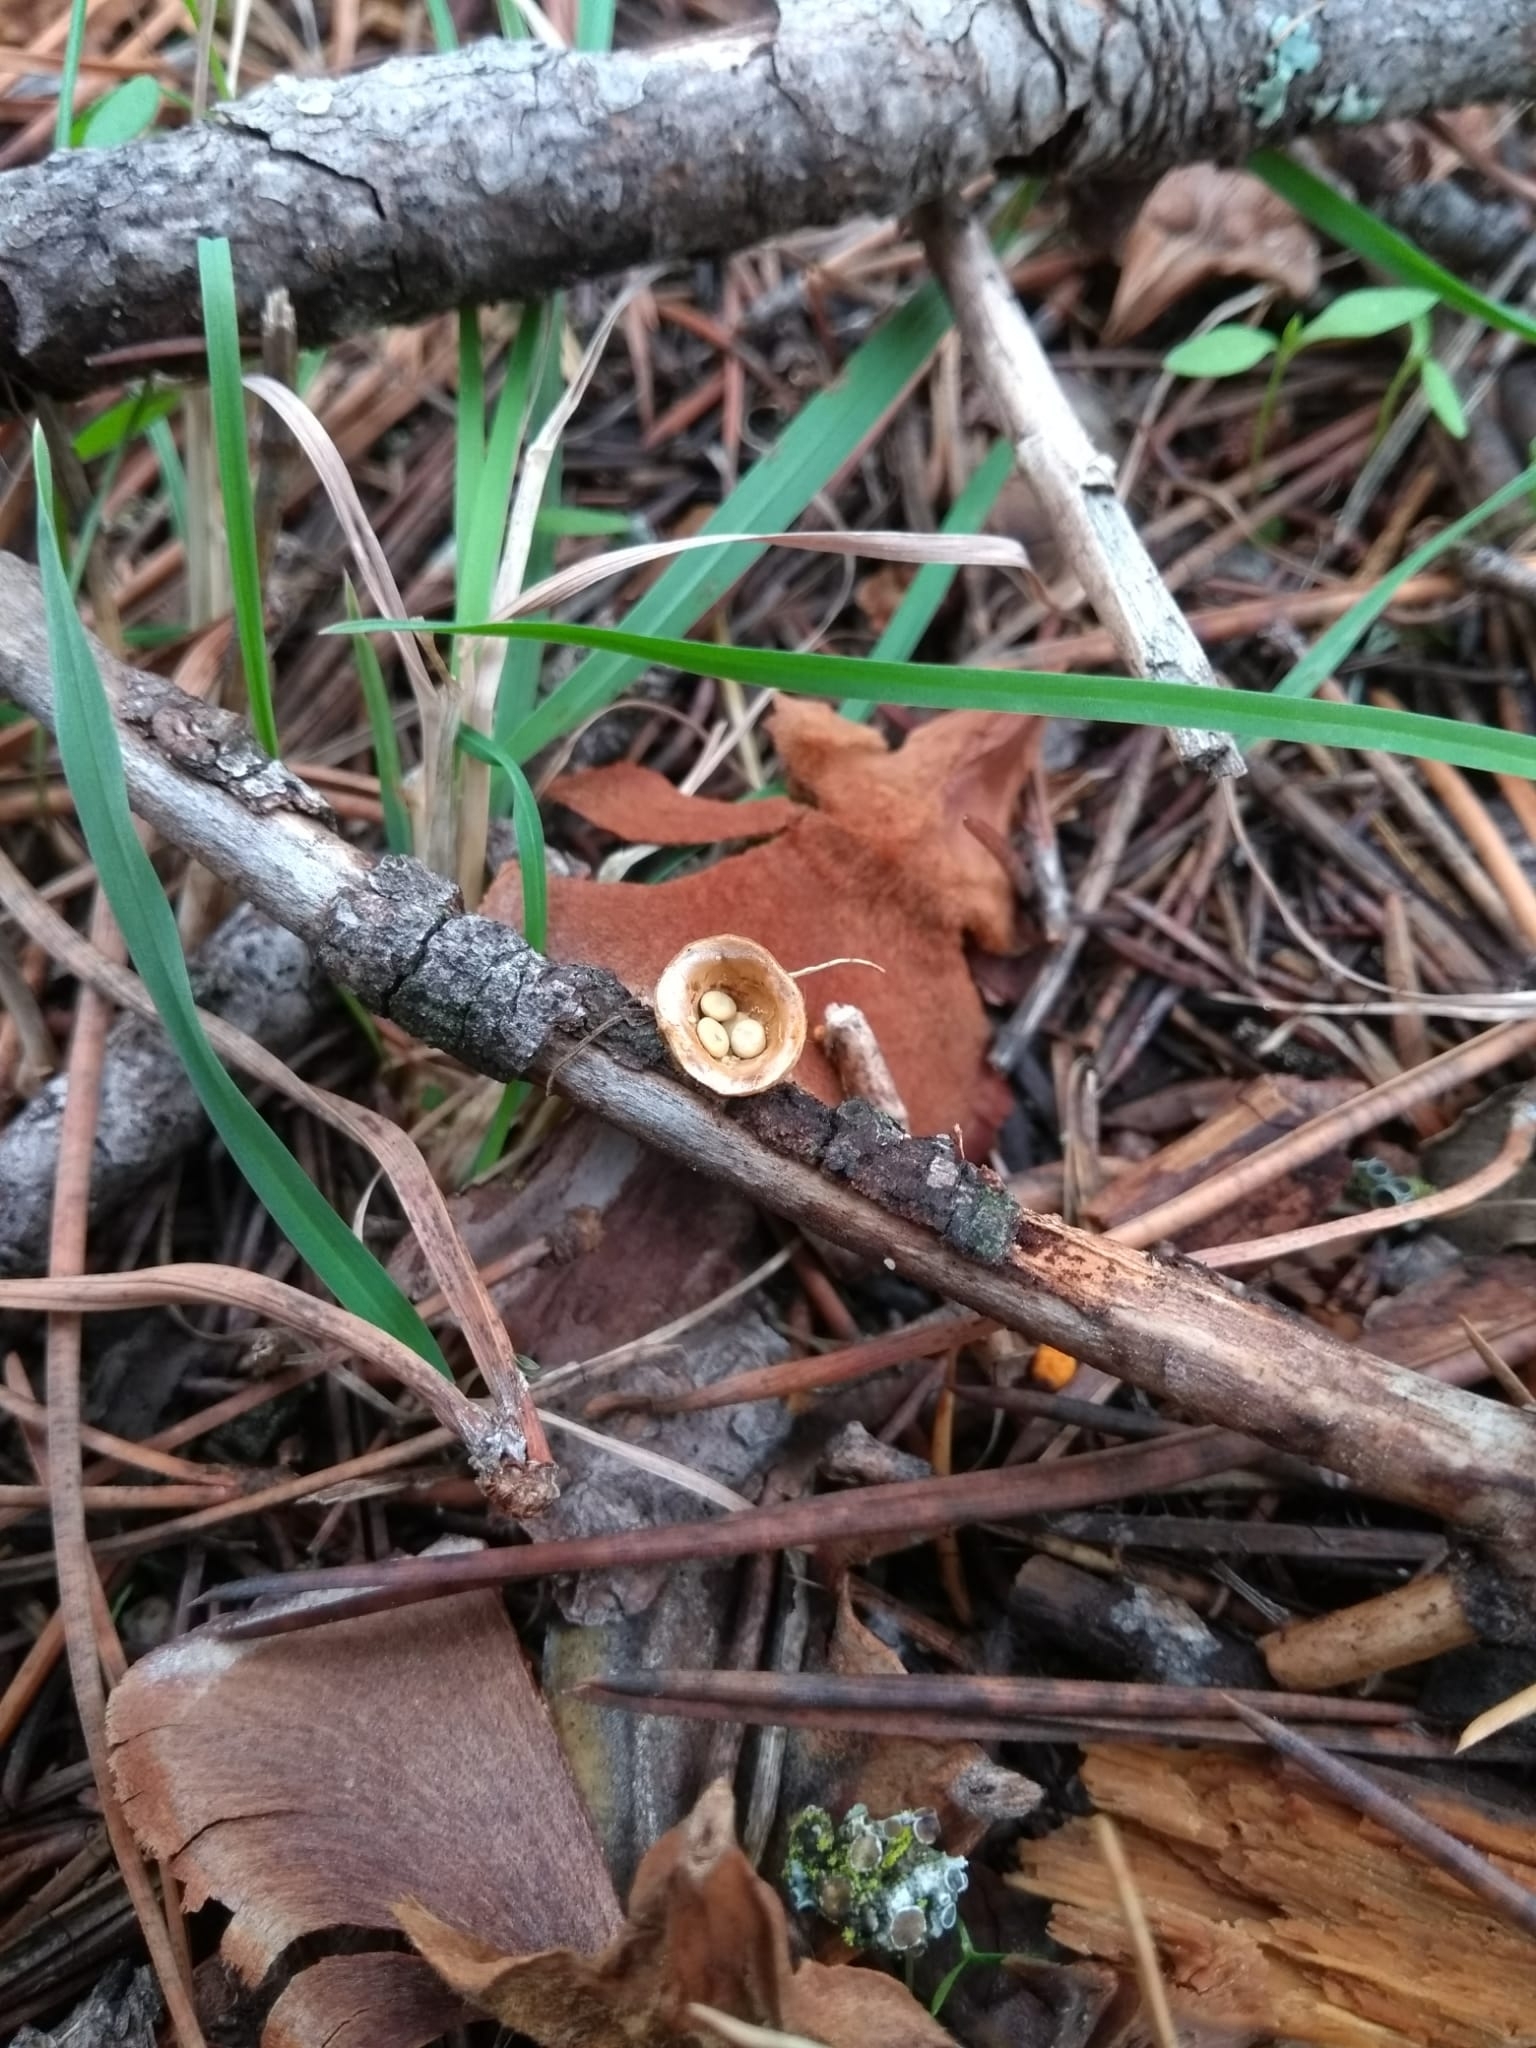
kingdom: Fungi
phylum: Basidiomycota
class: Agaricomycetes
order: Agaricales
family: Nidulariaceae
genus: Crucibulum
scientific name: Crucibulum laeve
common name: Common bird's nest
